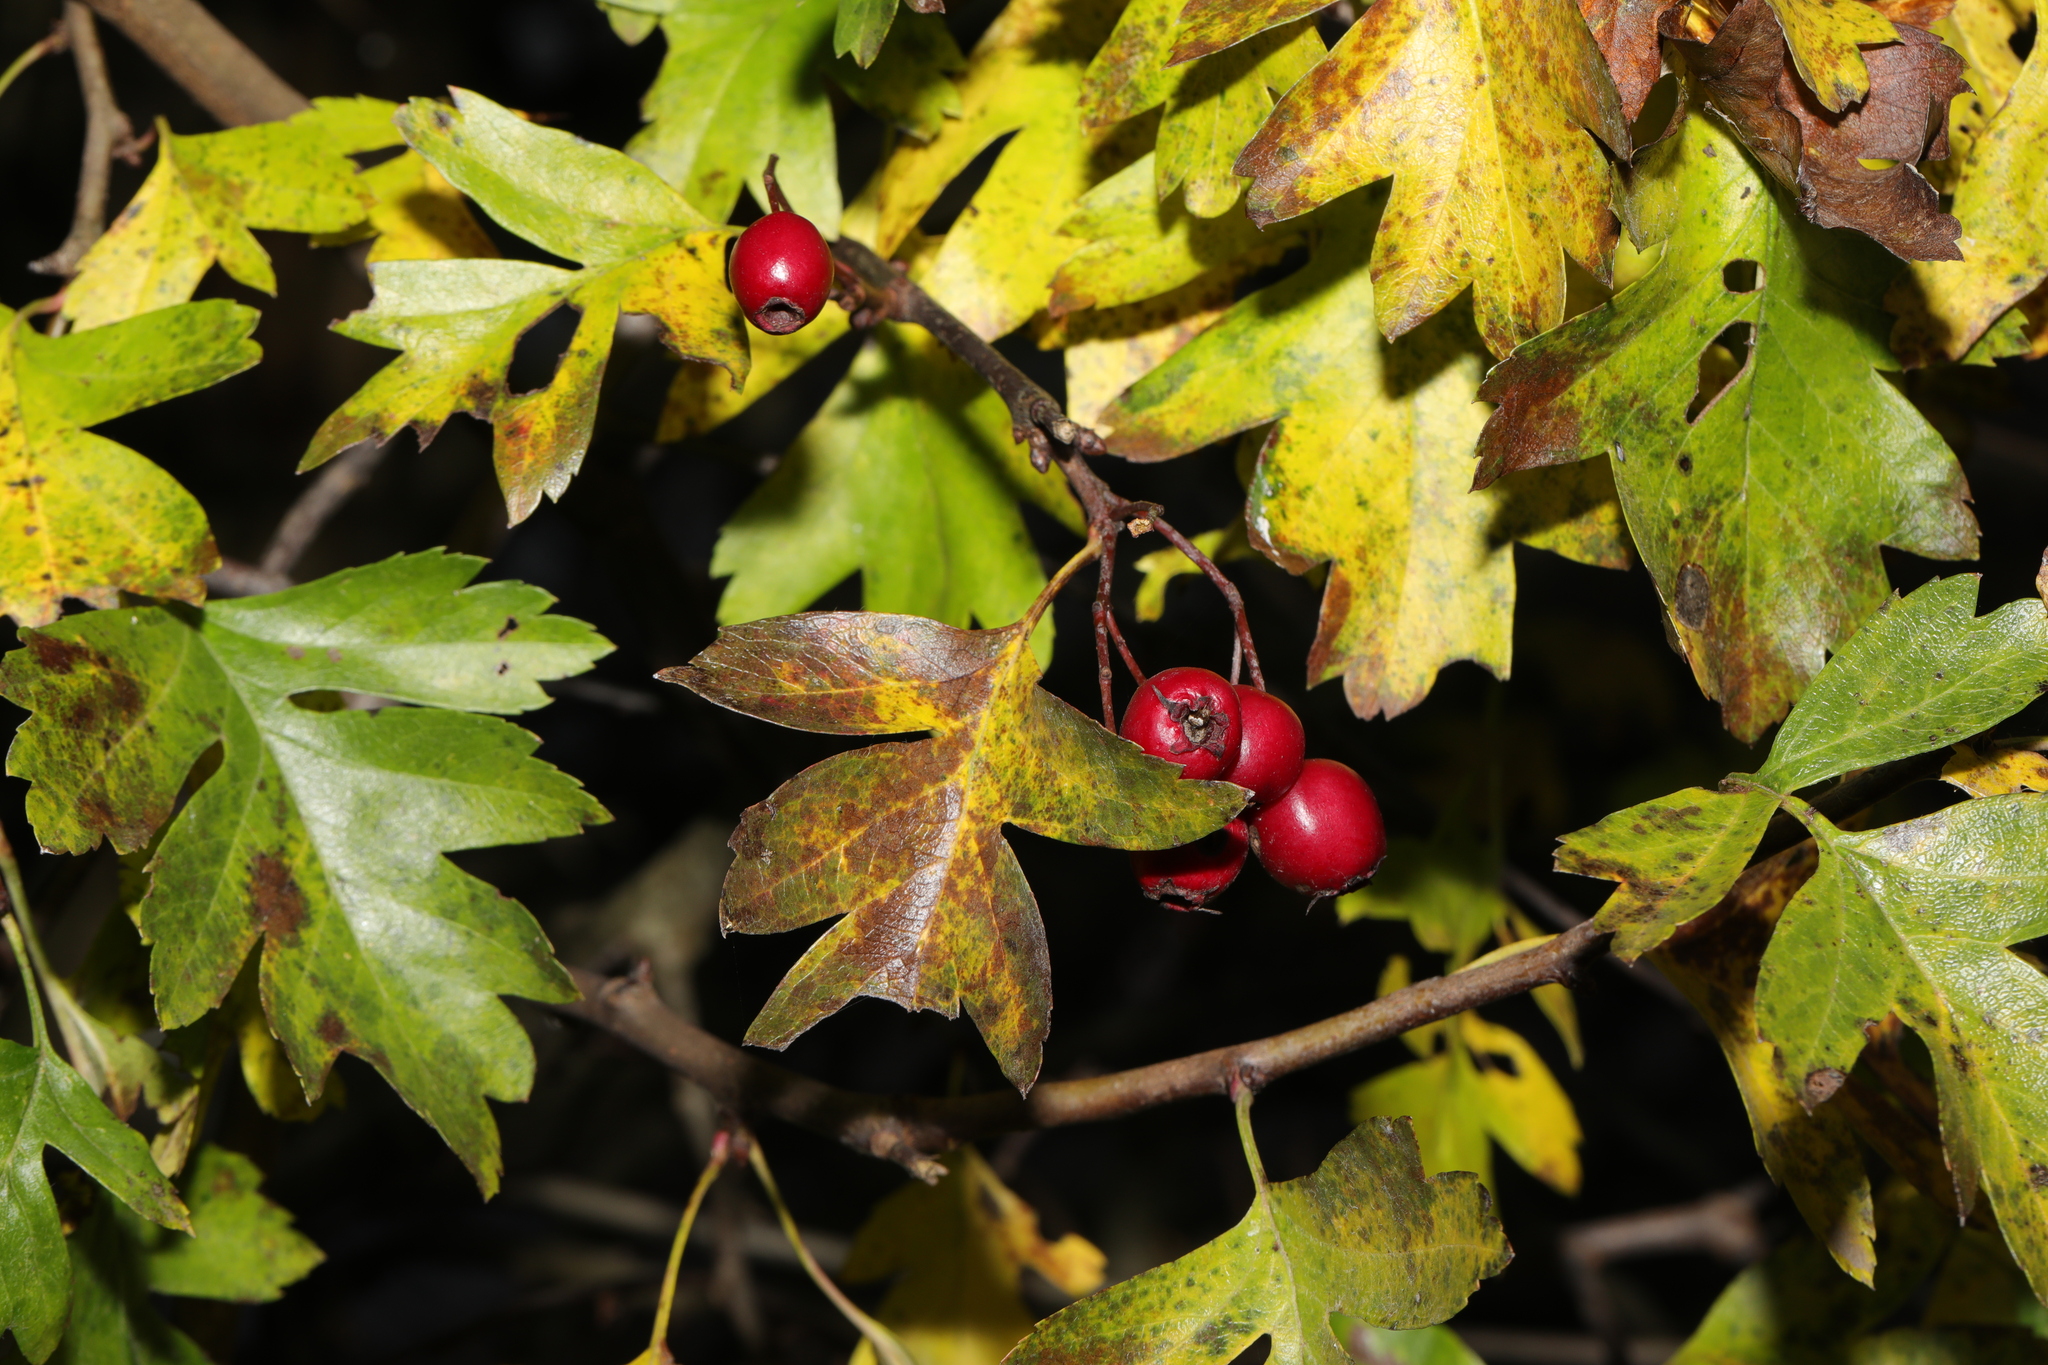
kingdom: Plantae
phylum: Tracheophyta
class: Magnoliopsida
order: Rosales
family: Rosaceae
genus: Crataegus
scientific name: Crataegus monogyna
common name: Hawthorn
